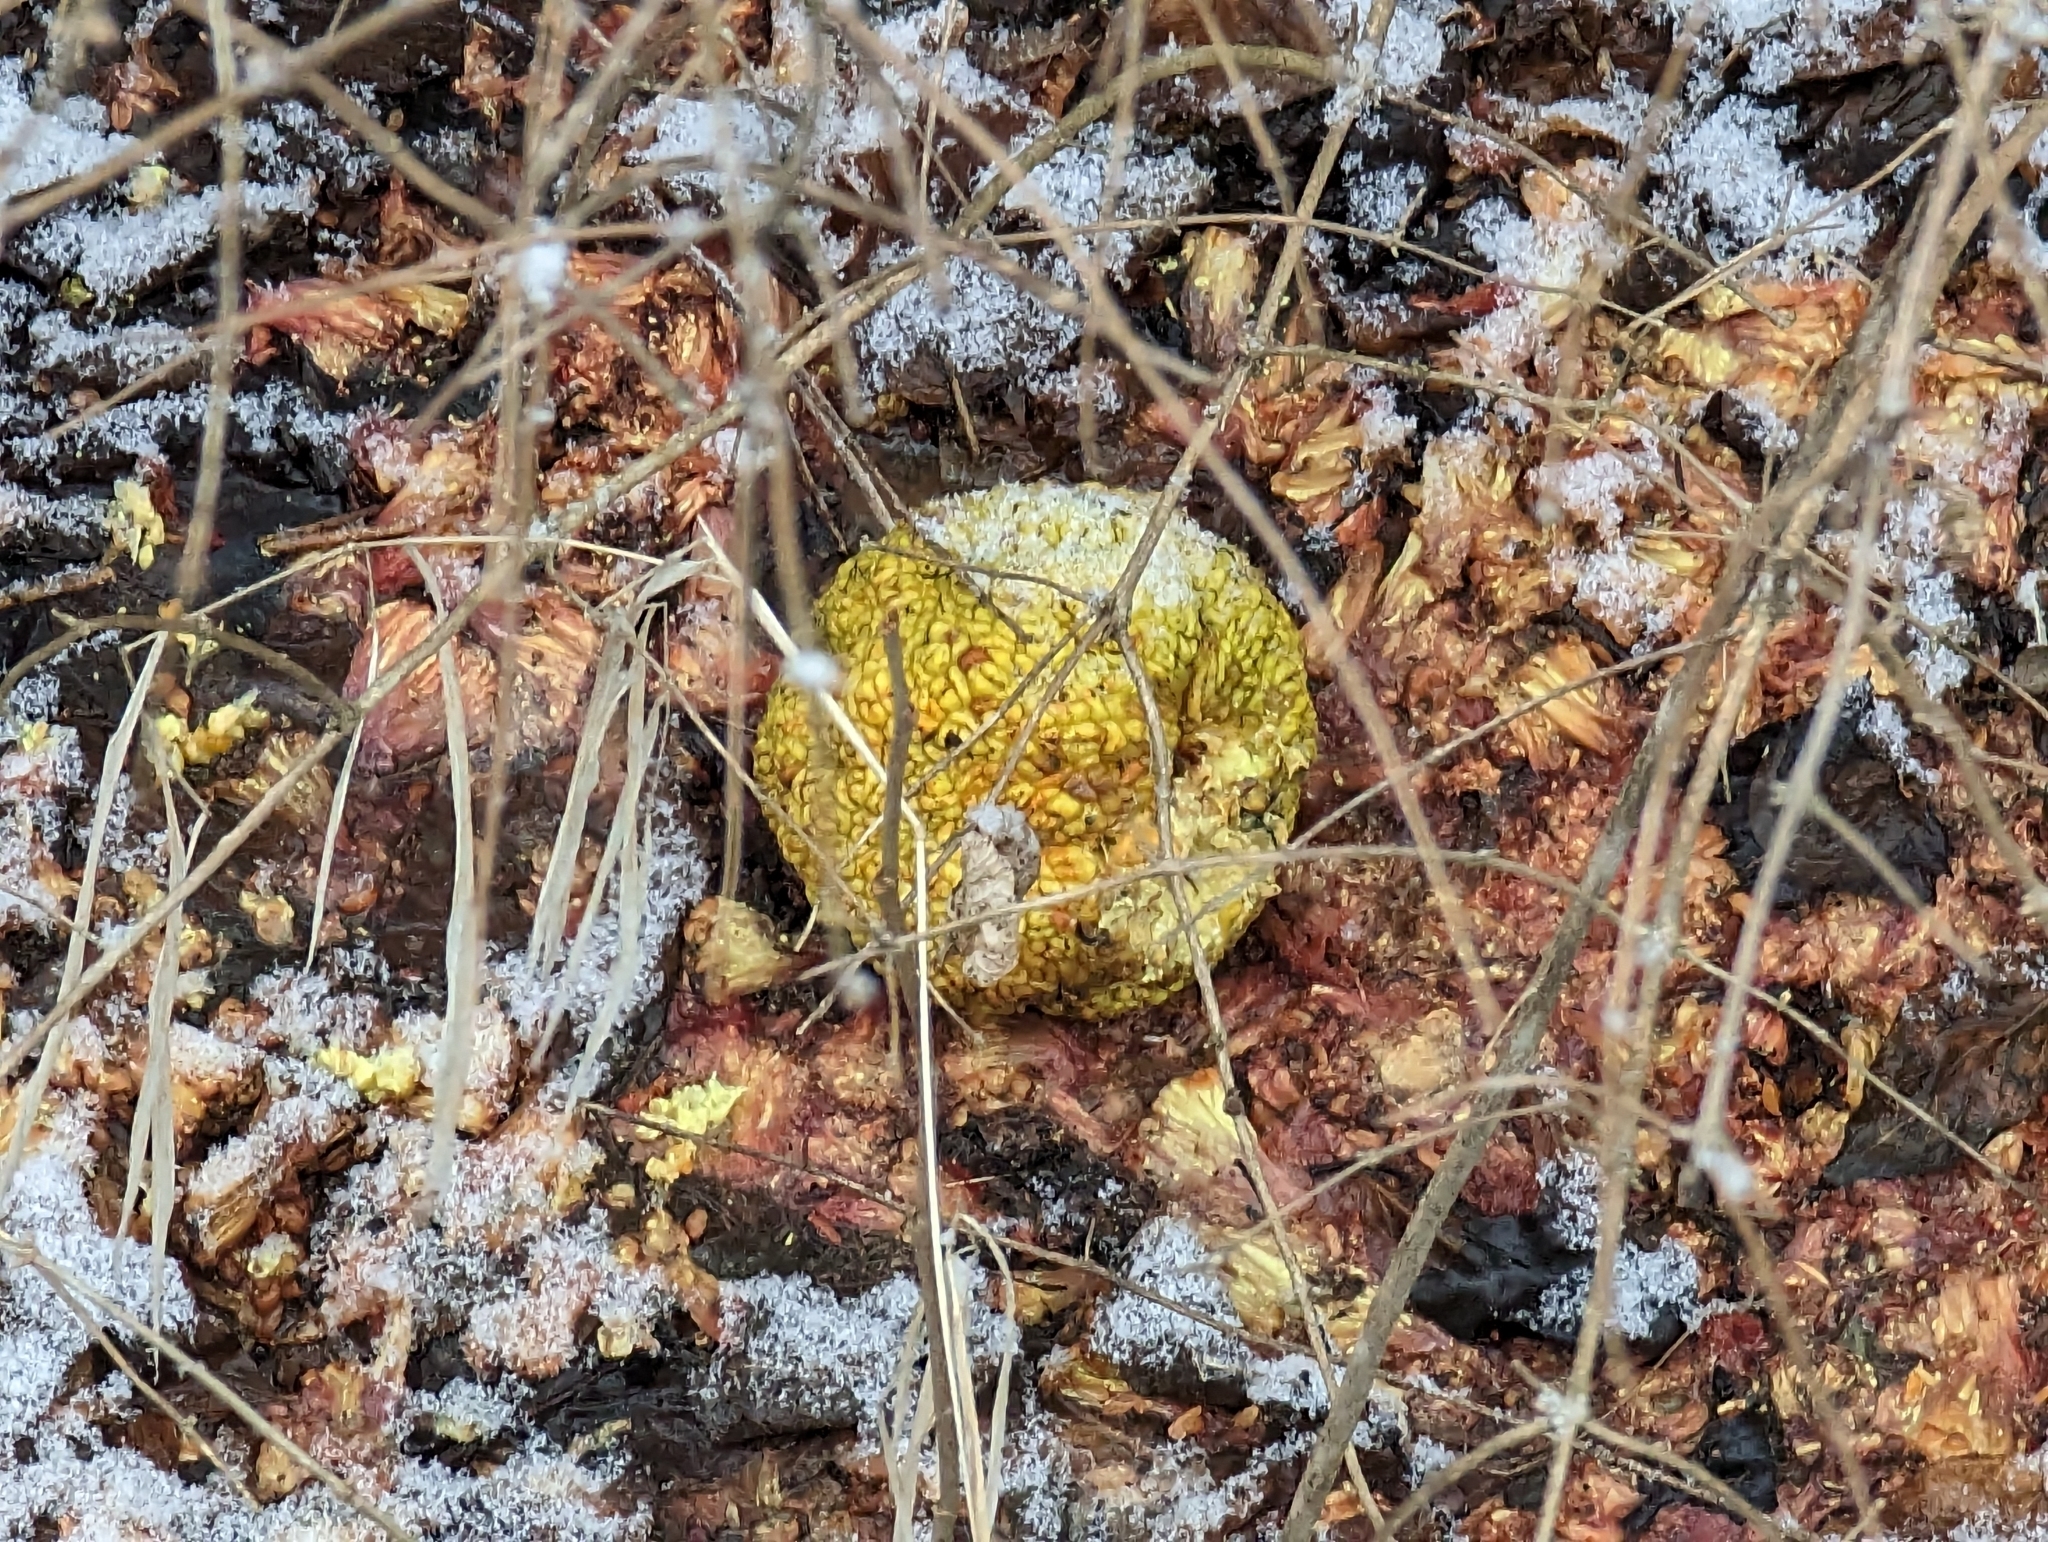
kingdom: Plantae
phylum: Tracheophyta
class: Magnoliopsida
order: Rosales
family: Moraceae
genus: Maclura
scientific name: Maclura pomifera
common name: Osage-orange
